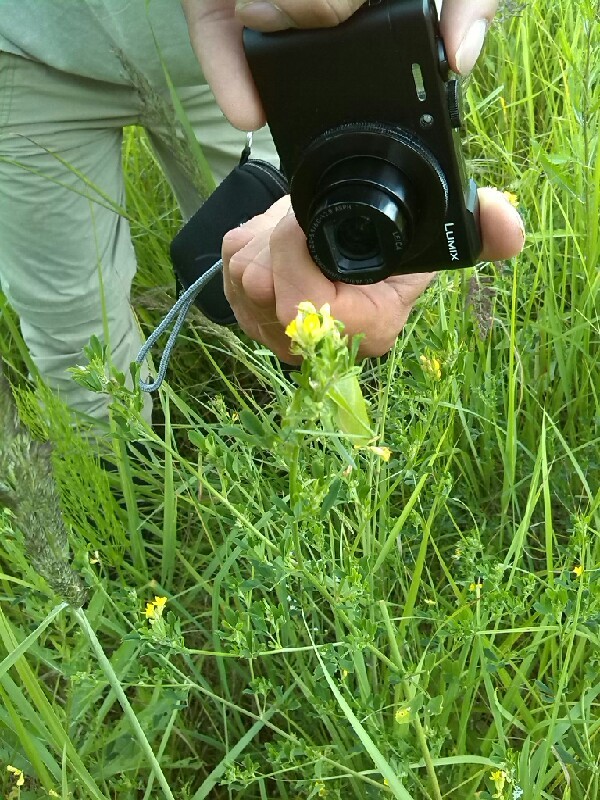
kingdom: Animalia
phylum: Arthropoda
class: Insecta
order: Orthoptera
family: Tettigoniidae
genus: Tettigonia
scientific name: Tettigonia cantans
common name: Upland green bush-cricket
